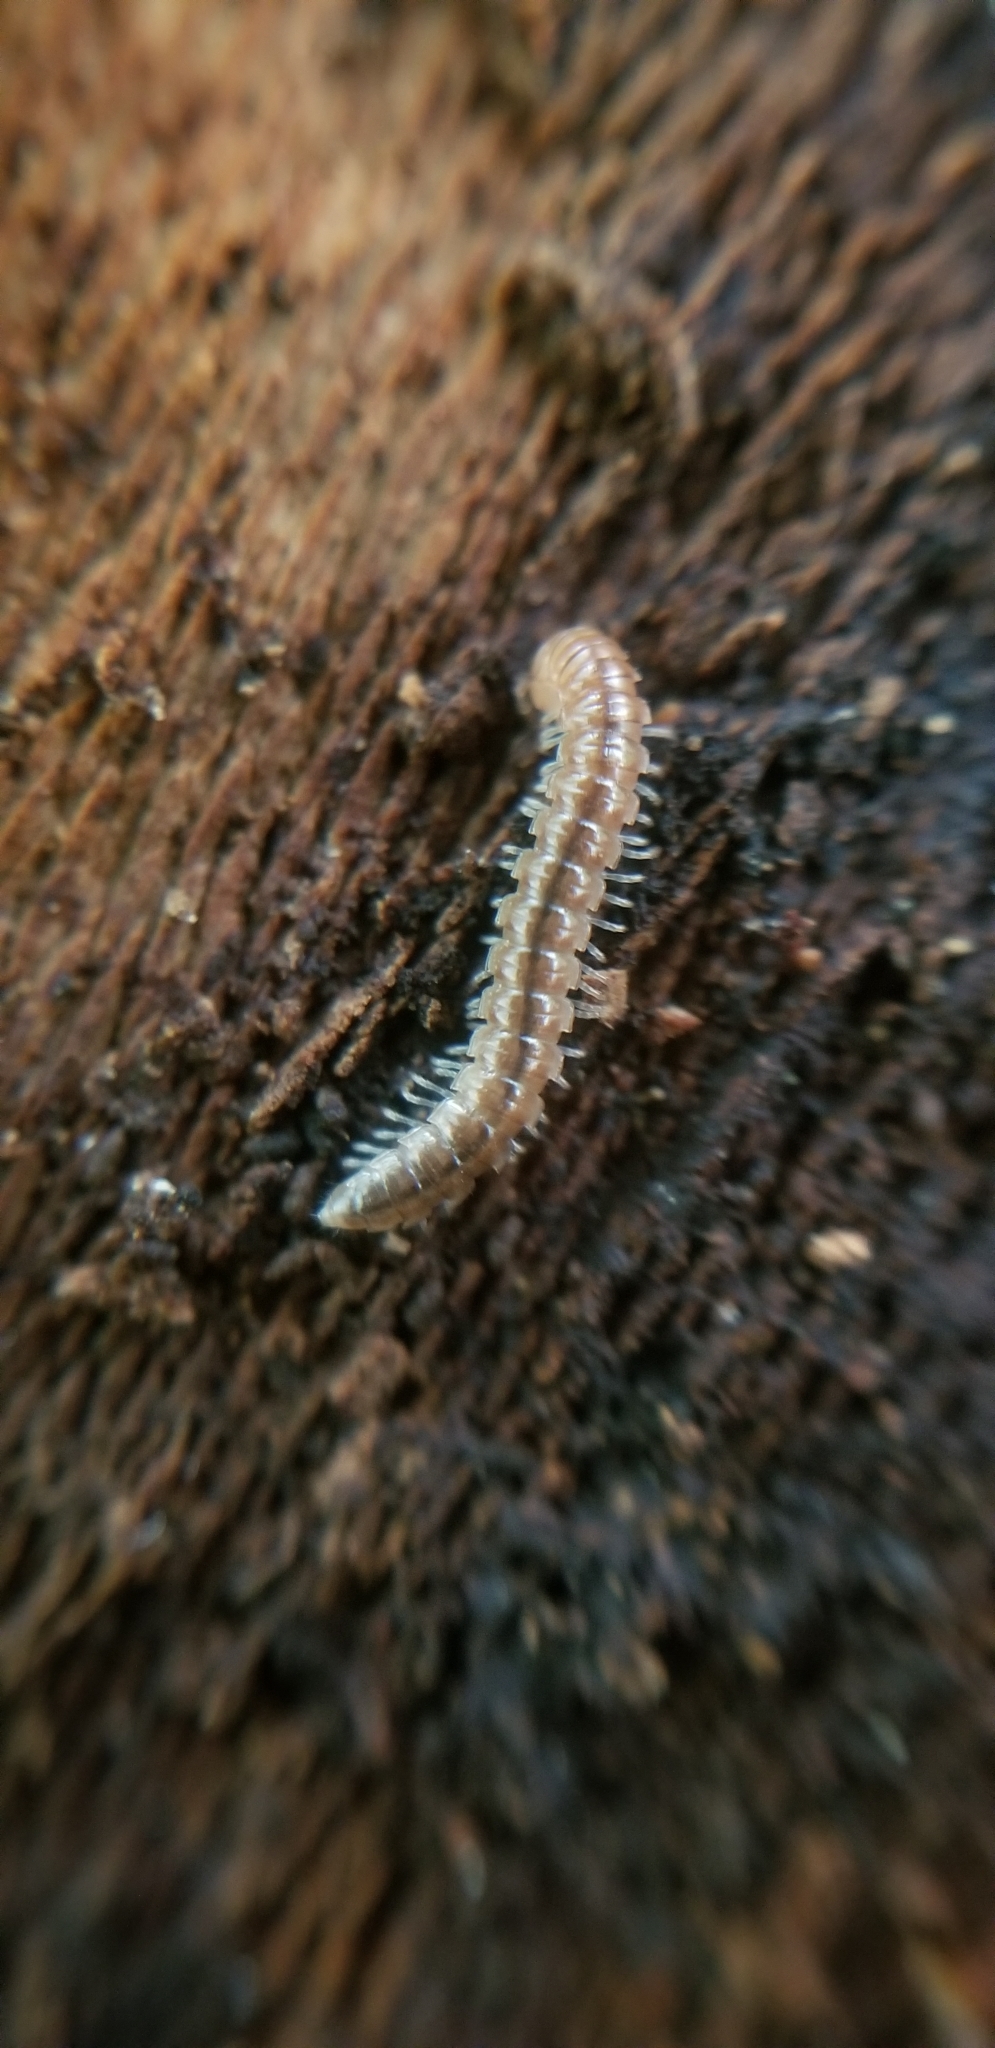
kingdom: Animalia
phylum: Arthropoda
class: Diplopoda
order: Polydesmida
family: Paradoxosomatidae
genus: Oxidus
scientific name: Oxidus gracilis
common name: Greenhouse millipede
